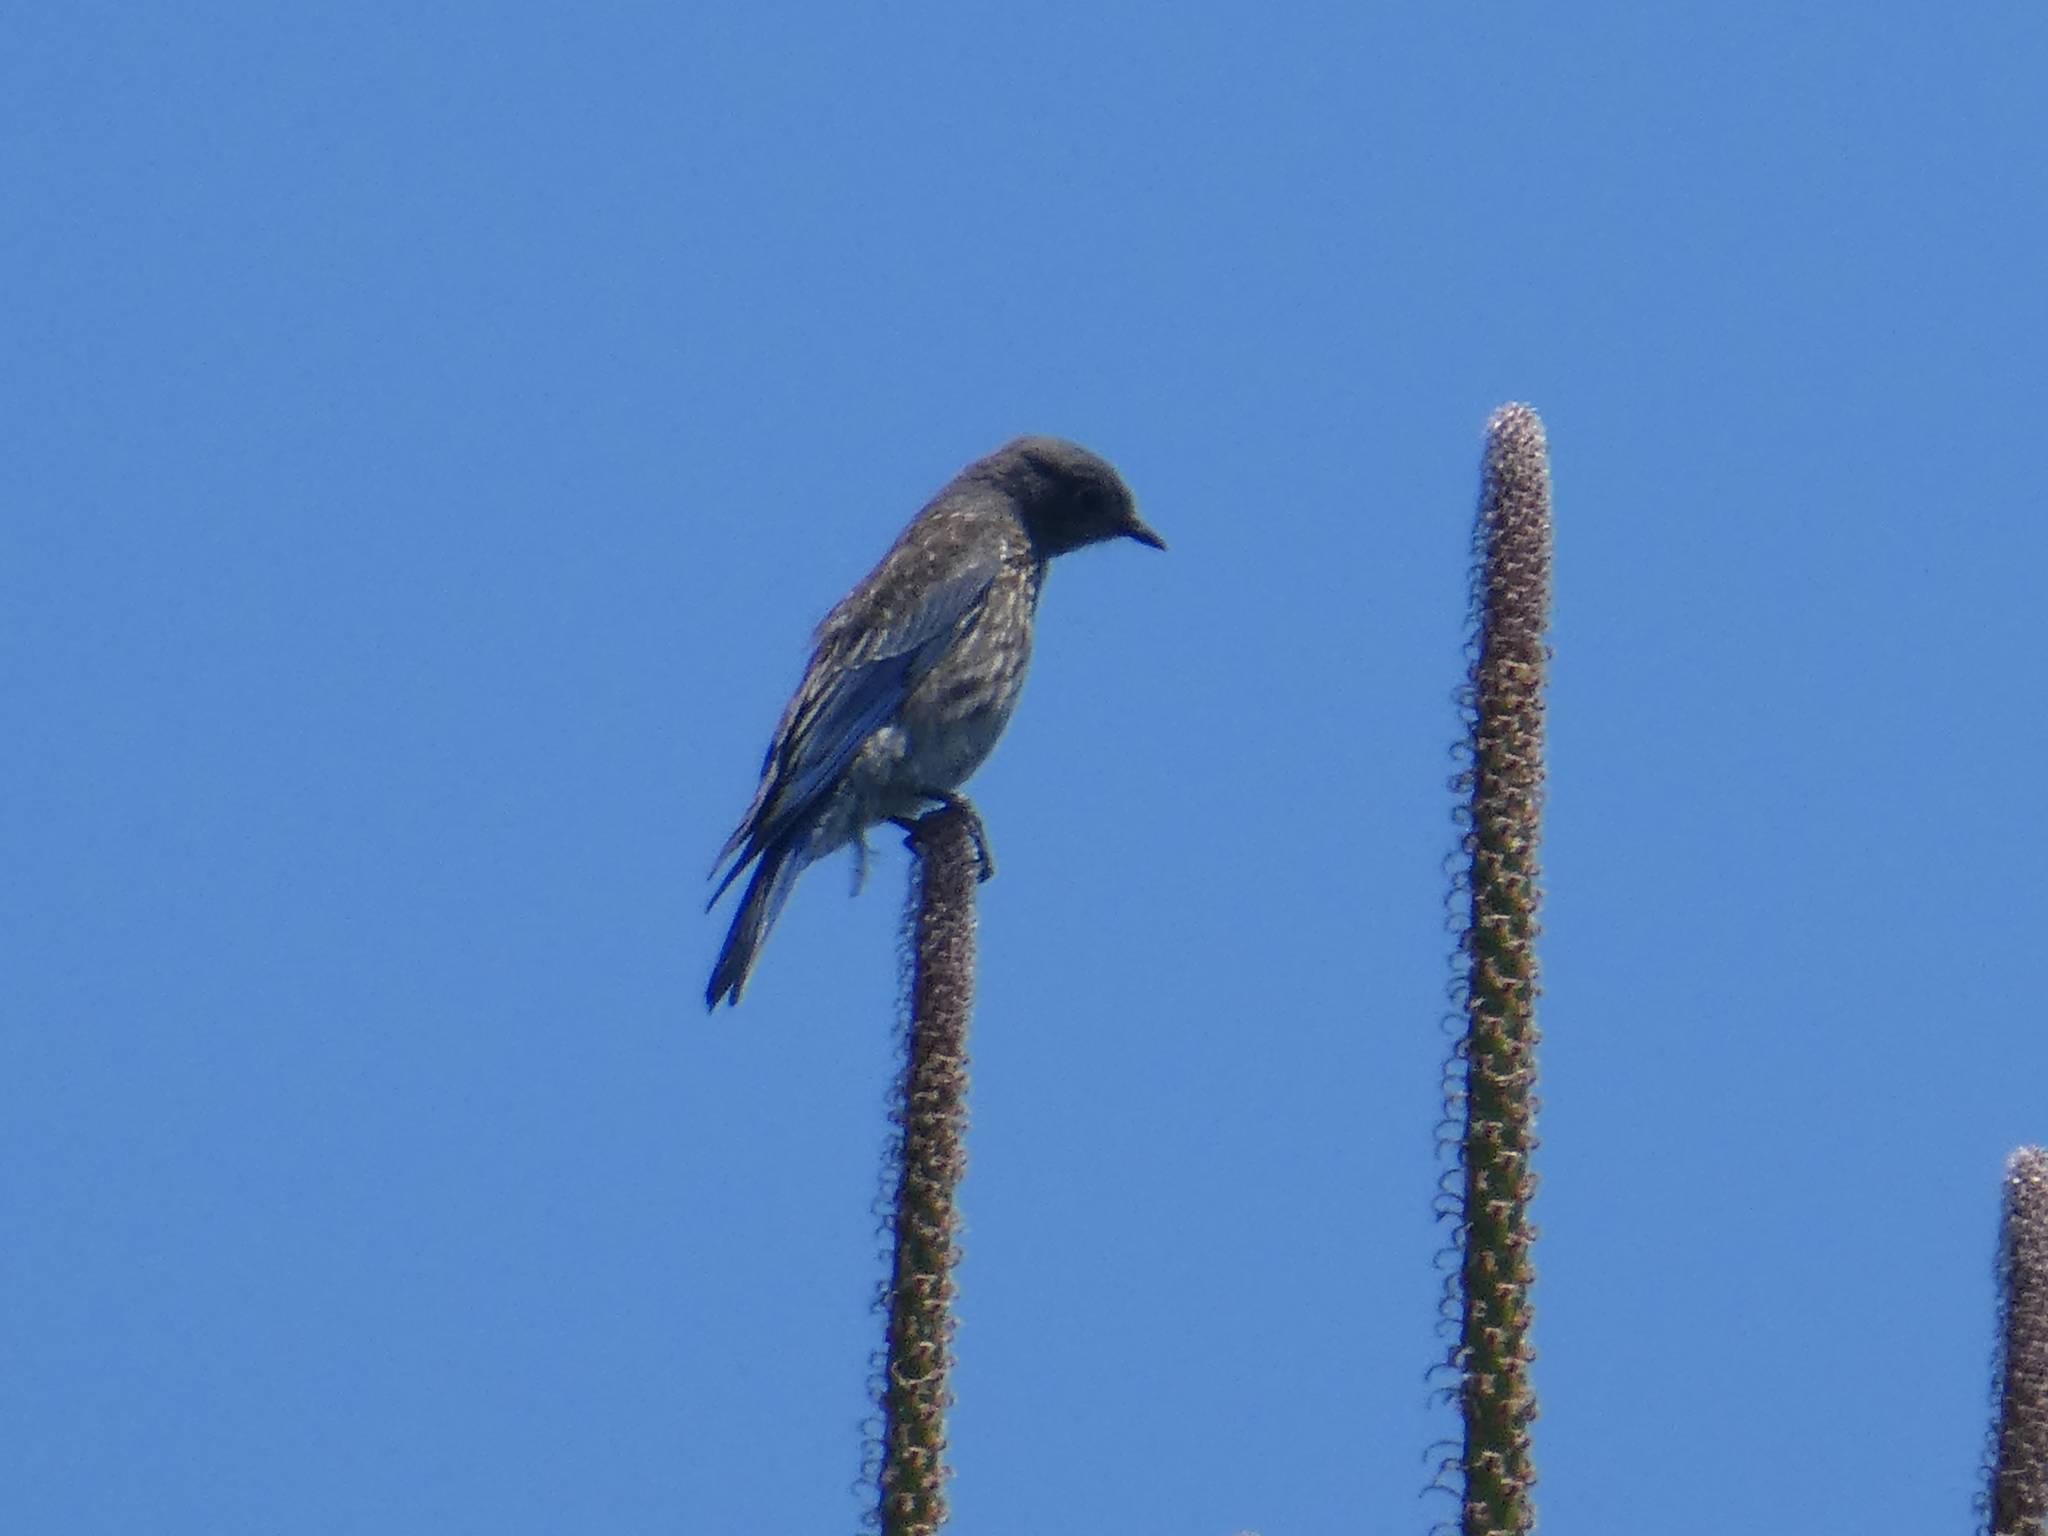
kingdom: Animalia
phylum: Chordata
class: Aves
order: Passeriformes
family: Turdidae
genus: Sialia
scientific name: Sialia mexicana
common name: Western bluebird
